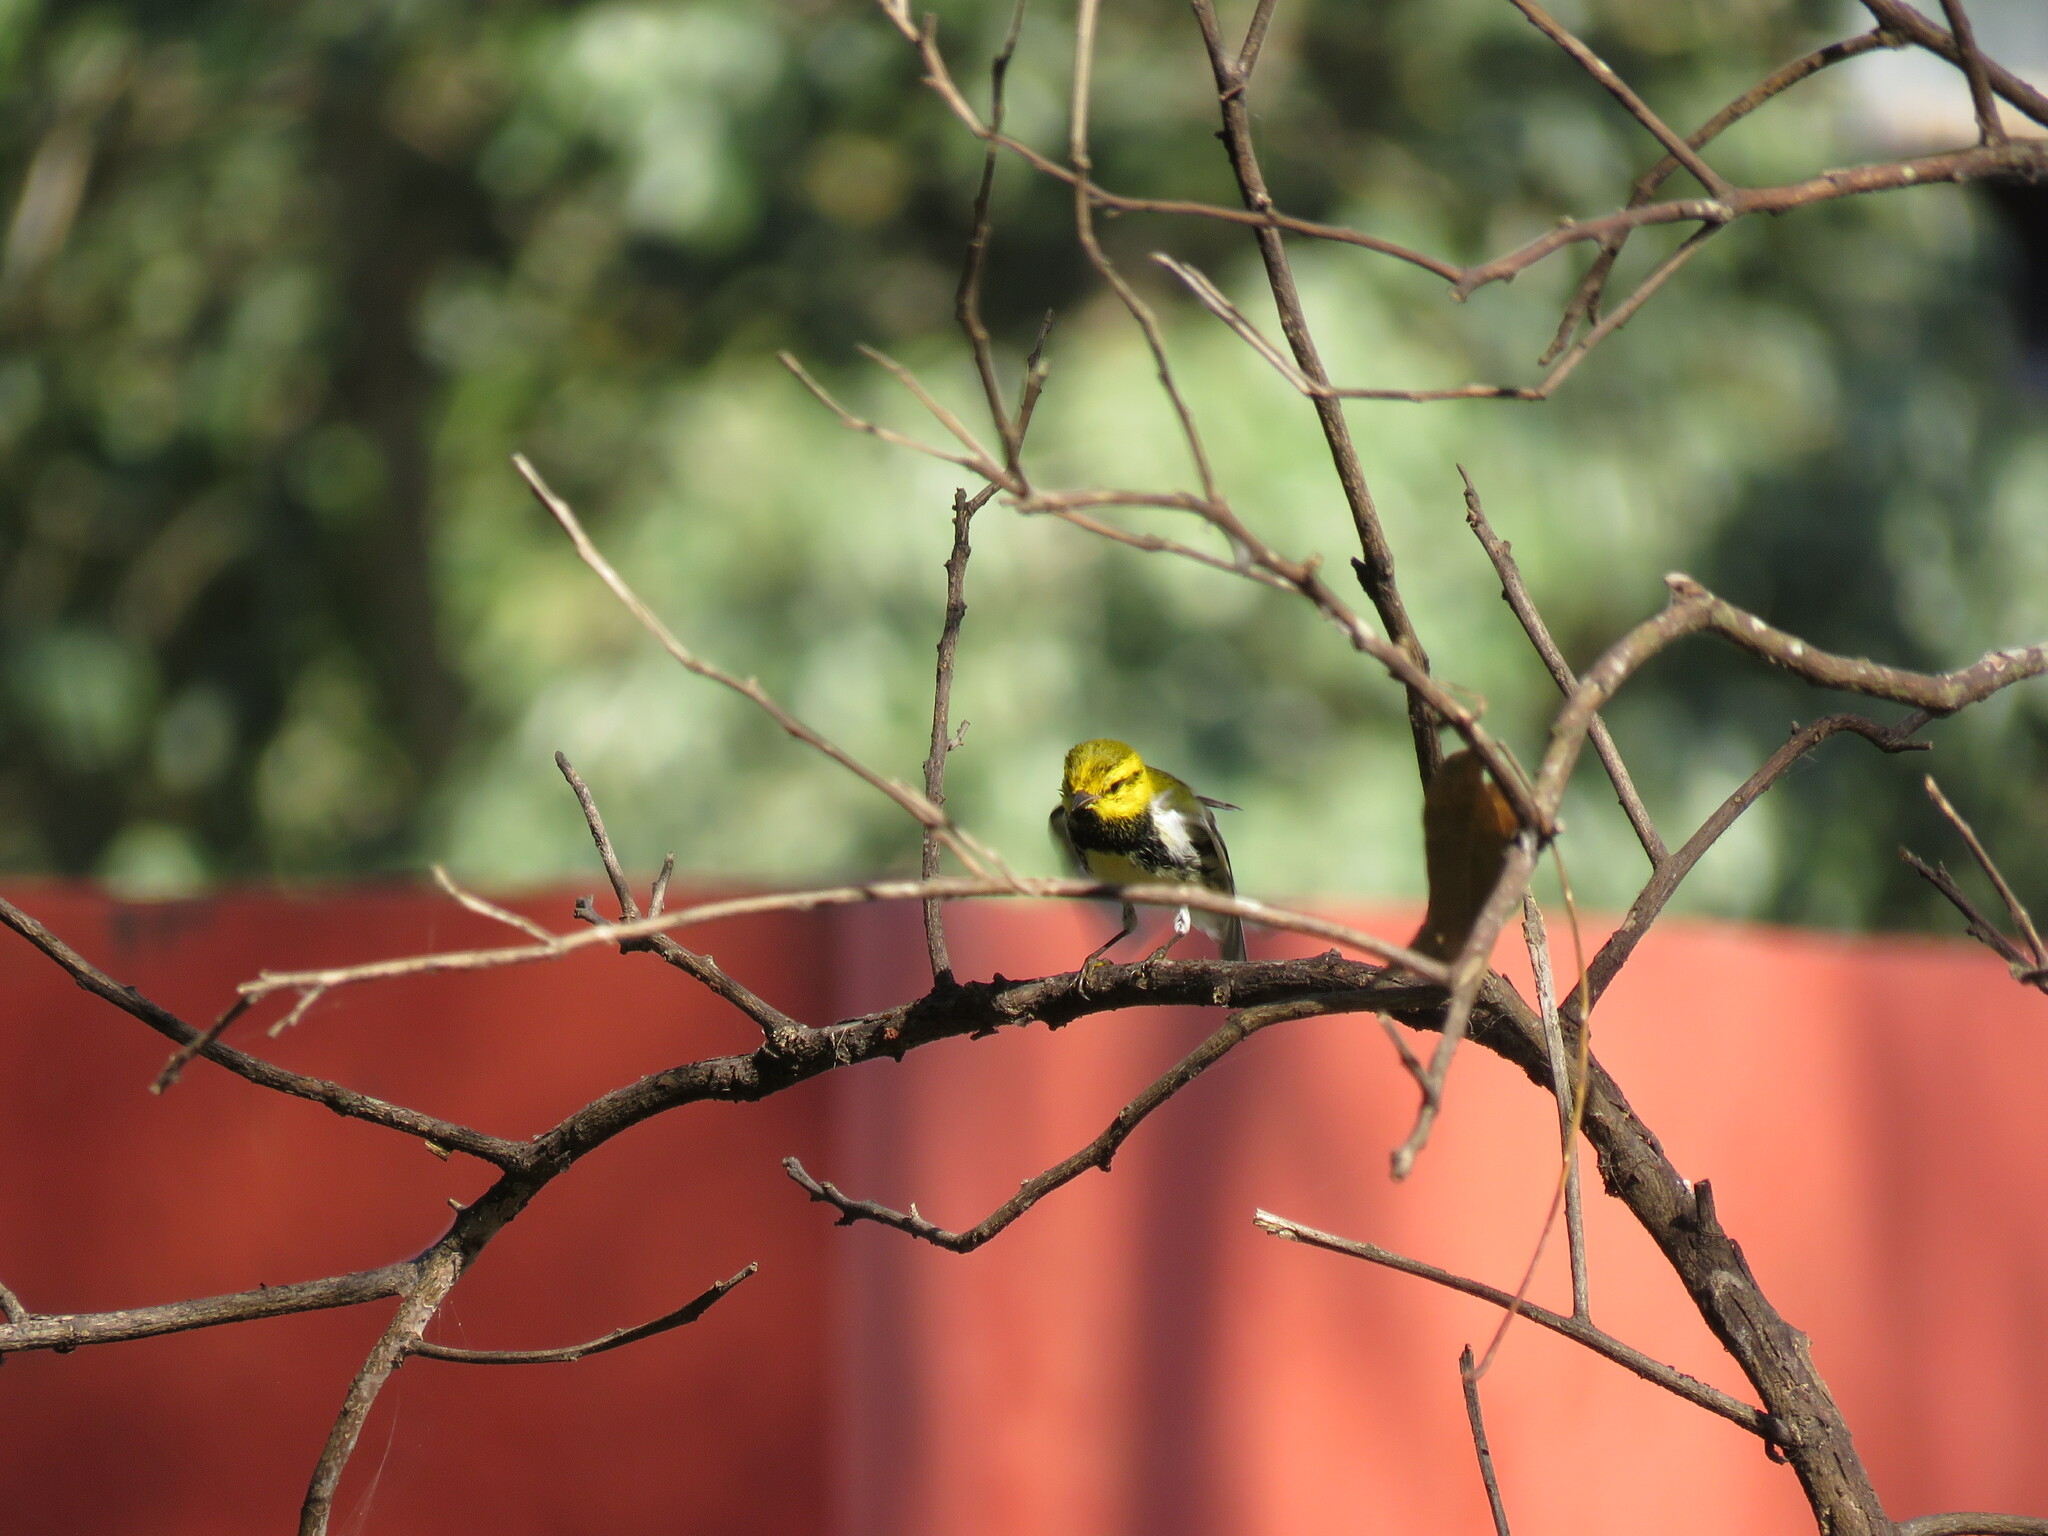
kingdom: Animalia
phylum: Chordata
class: Aves
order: Passeriformes
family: Parulidae
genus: Setophaga
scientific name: Setophaga virens
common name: Black-throated green warbler
